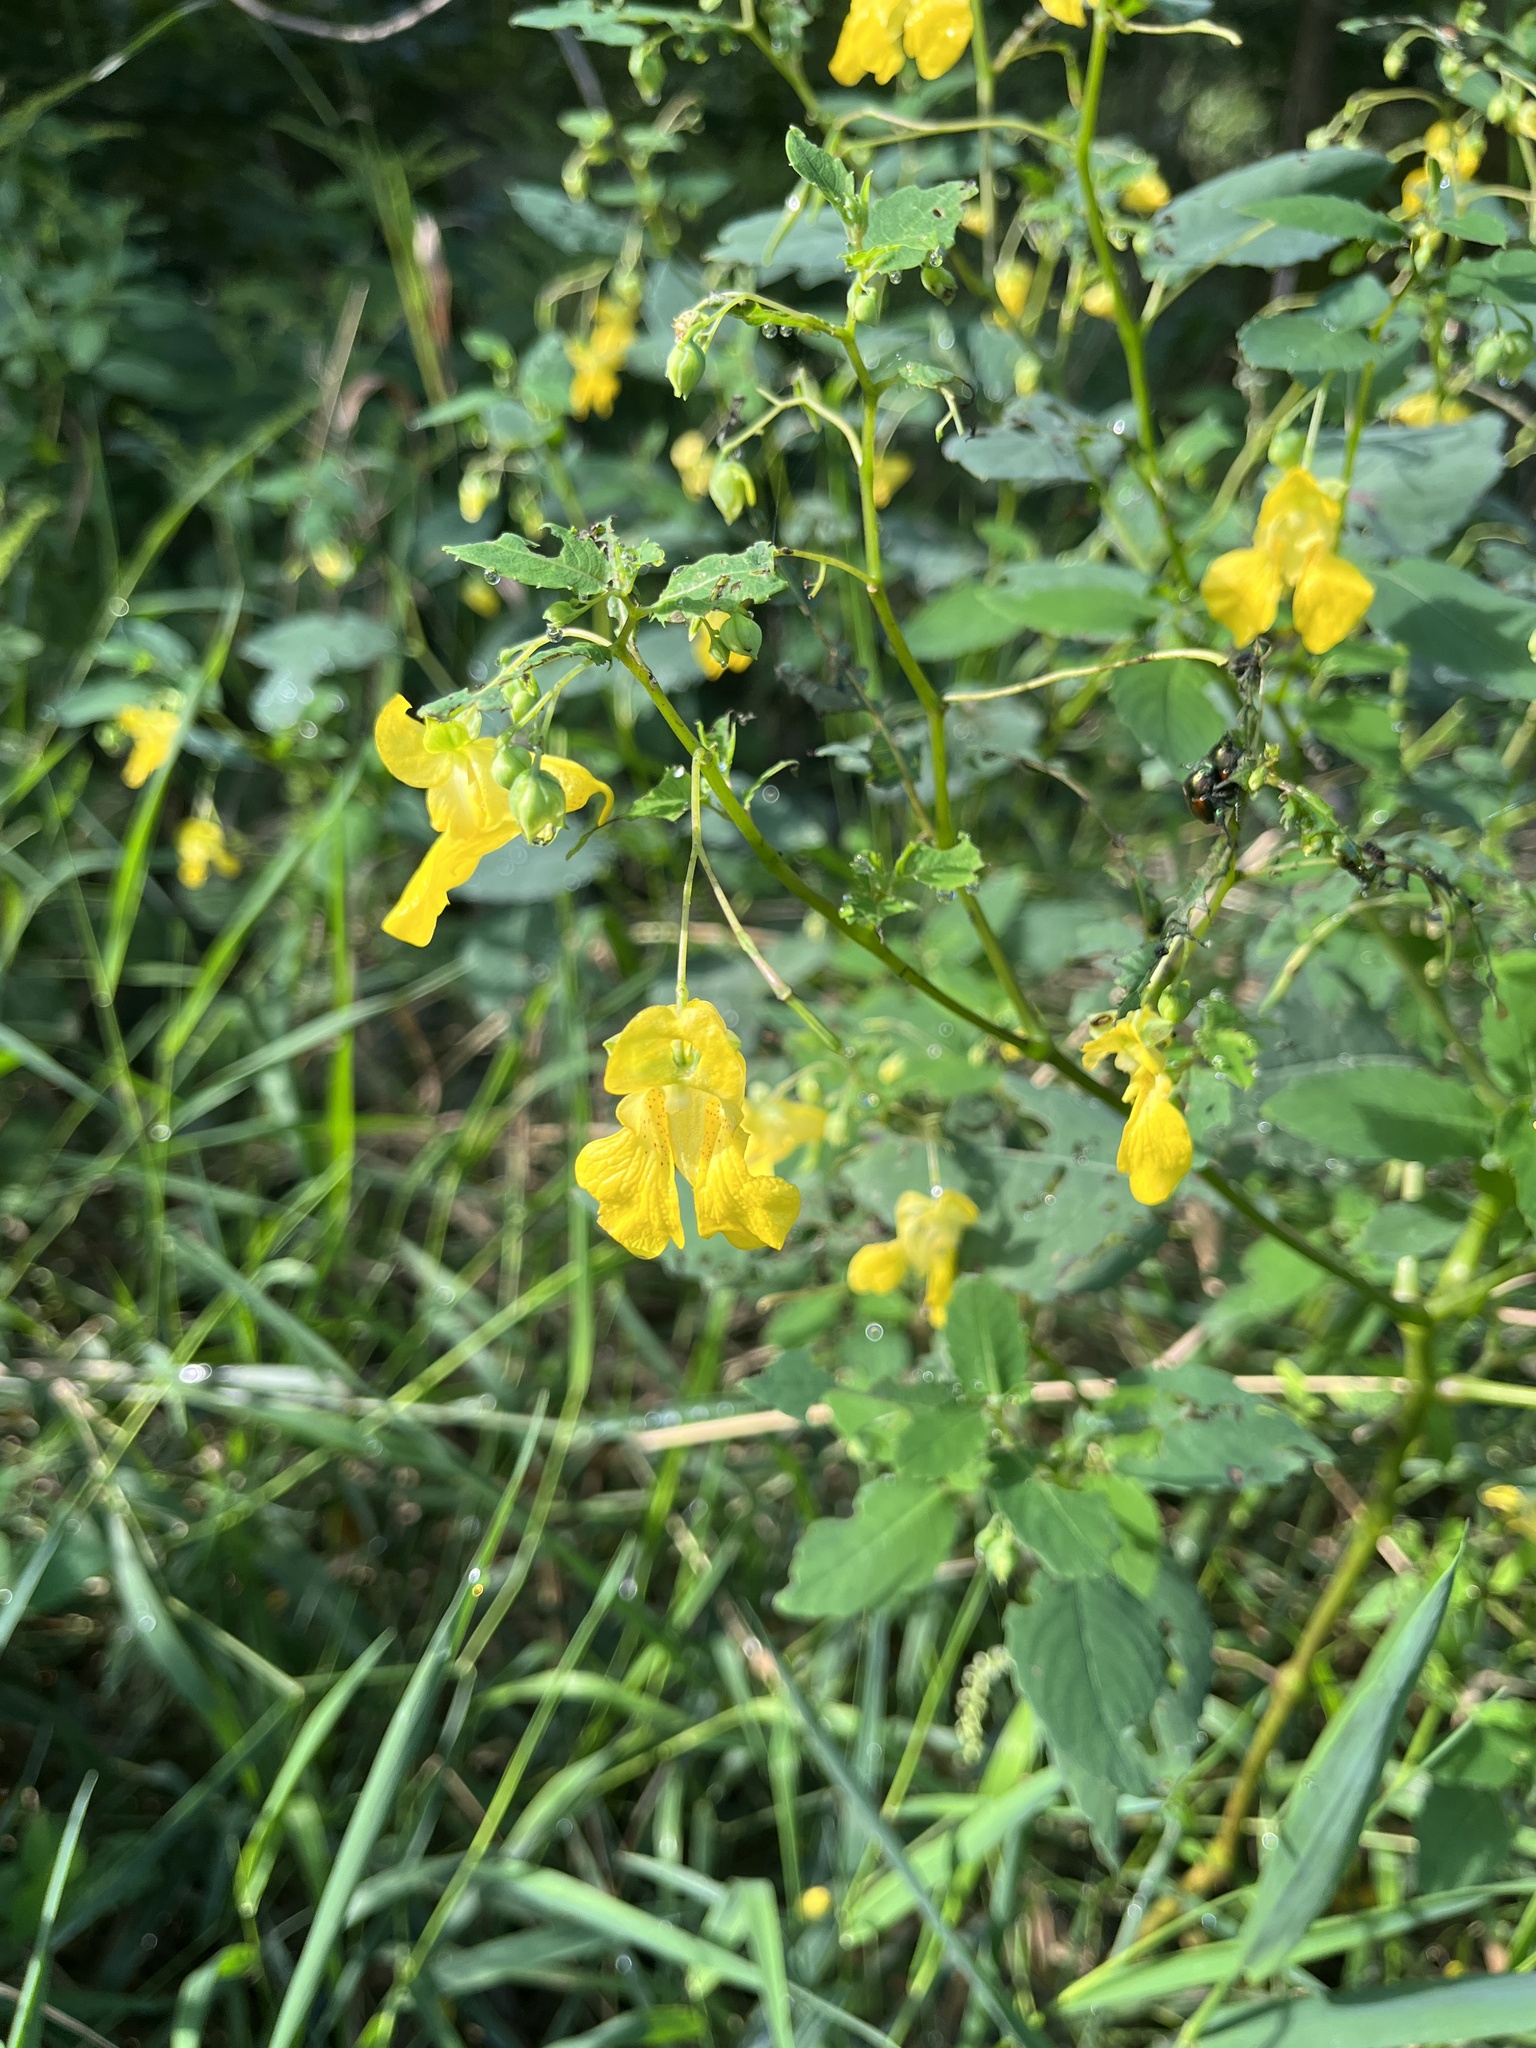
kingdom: Plantae
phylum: Tracheophyta
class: Magnoliopsida
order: Ericales
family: Balsaminaceae
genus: Impatiens
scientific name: Impatiens pallida
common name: Pale snapweed
